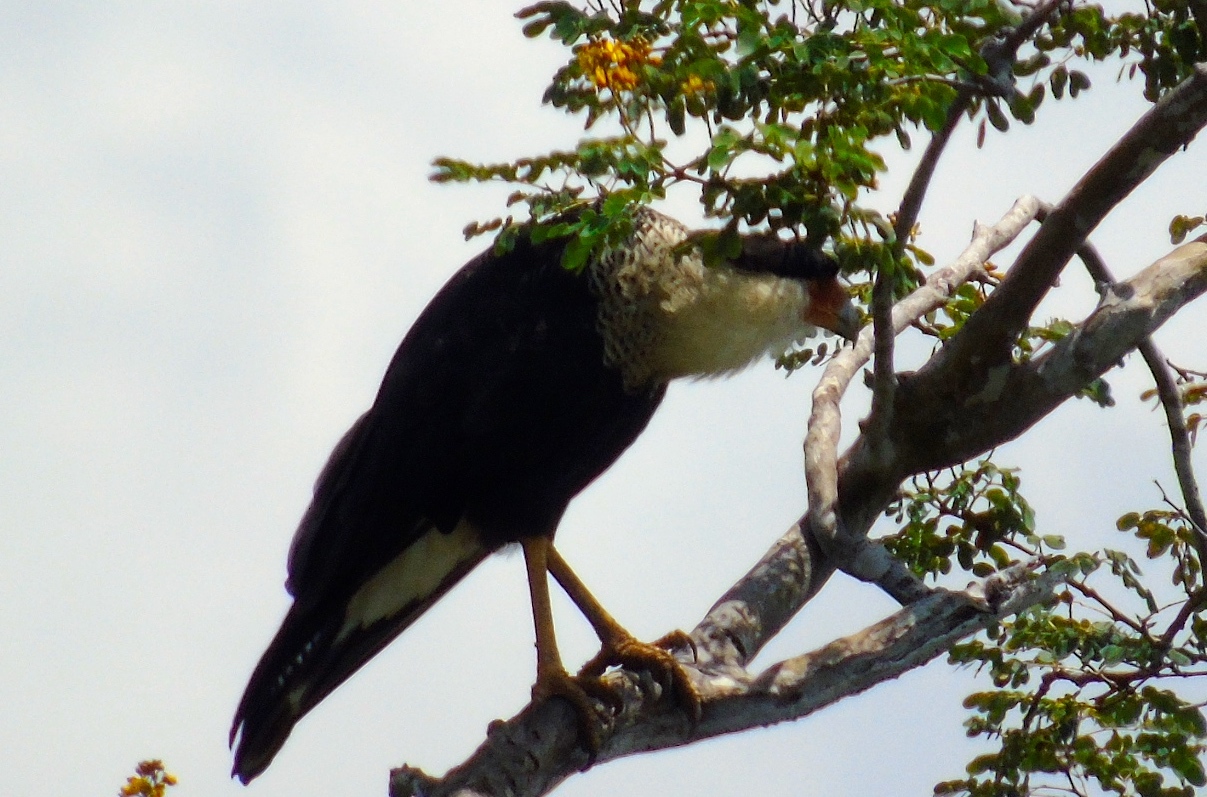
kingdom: Animalia
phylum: Chordata
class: Aves
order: Falconiformes
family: Falconidae
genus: Caracara
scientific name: Caracara plancus
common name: Southern caracara
